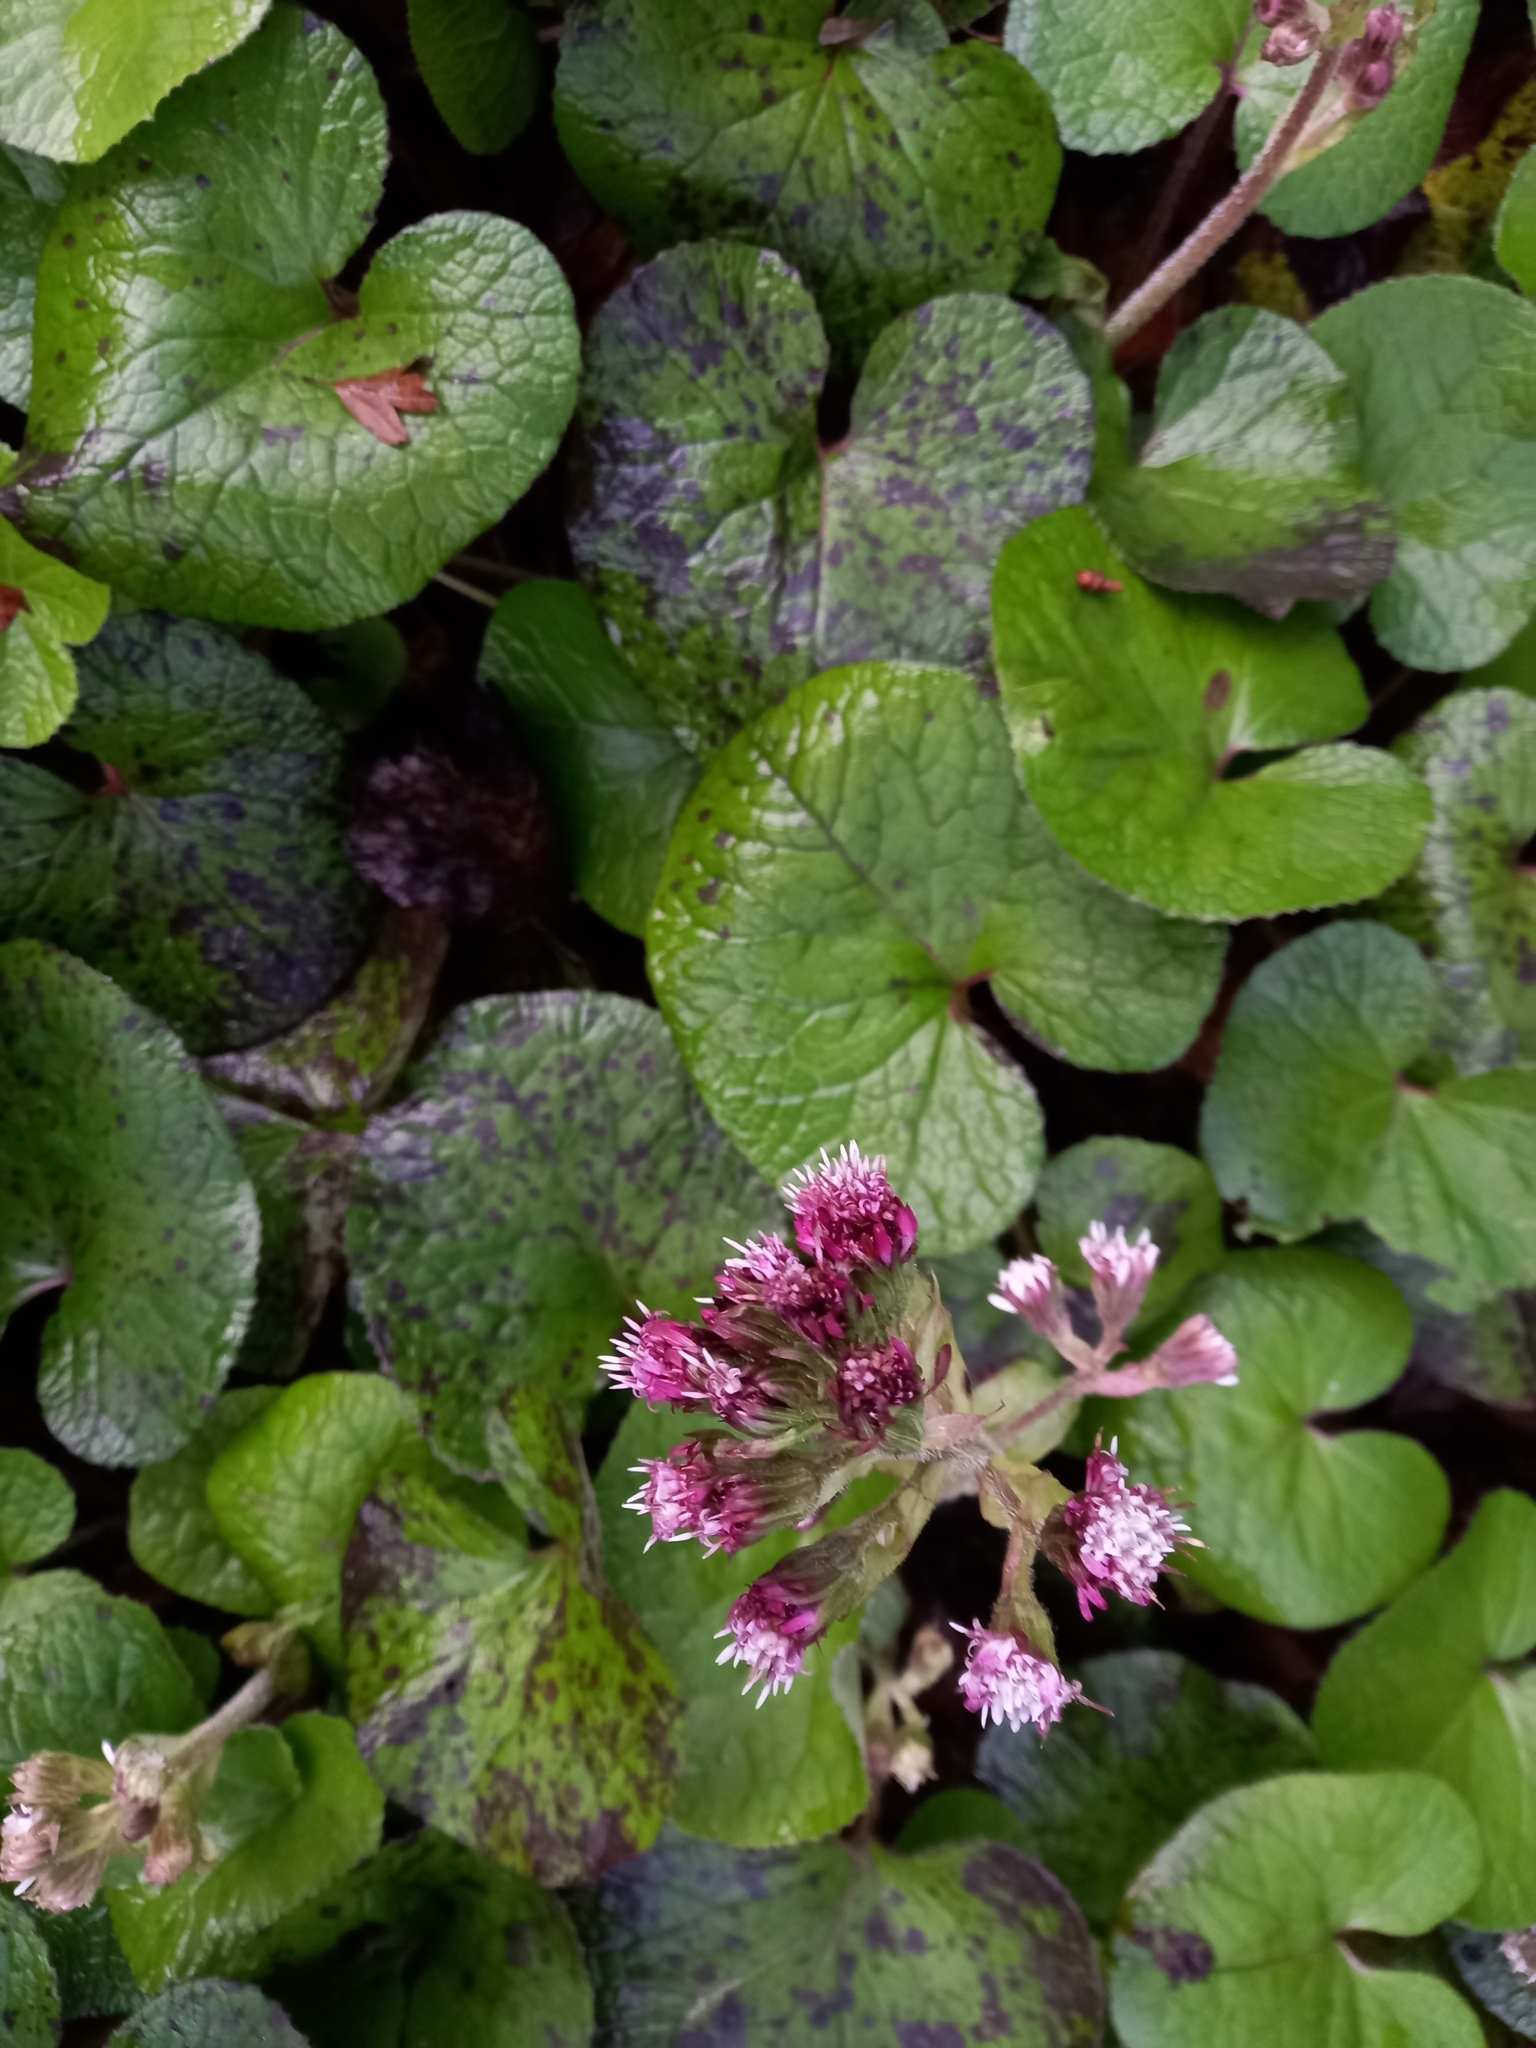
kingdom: Plantae
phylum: Tracheophyta
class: Magnoliopsida
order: Asterales
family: Asteraceae
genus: Petasites
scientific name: Petasites pyrenaicus
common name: Winter heliotrope
